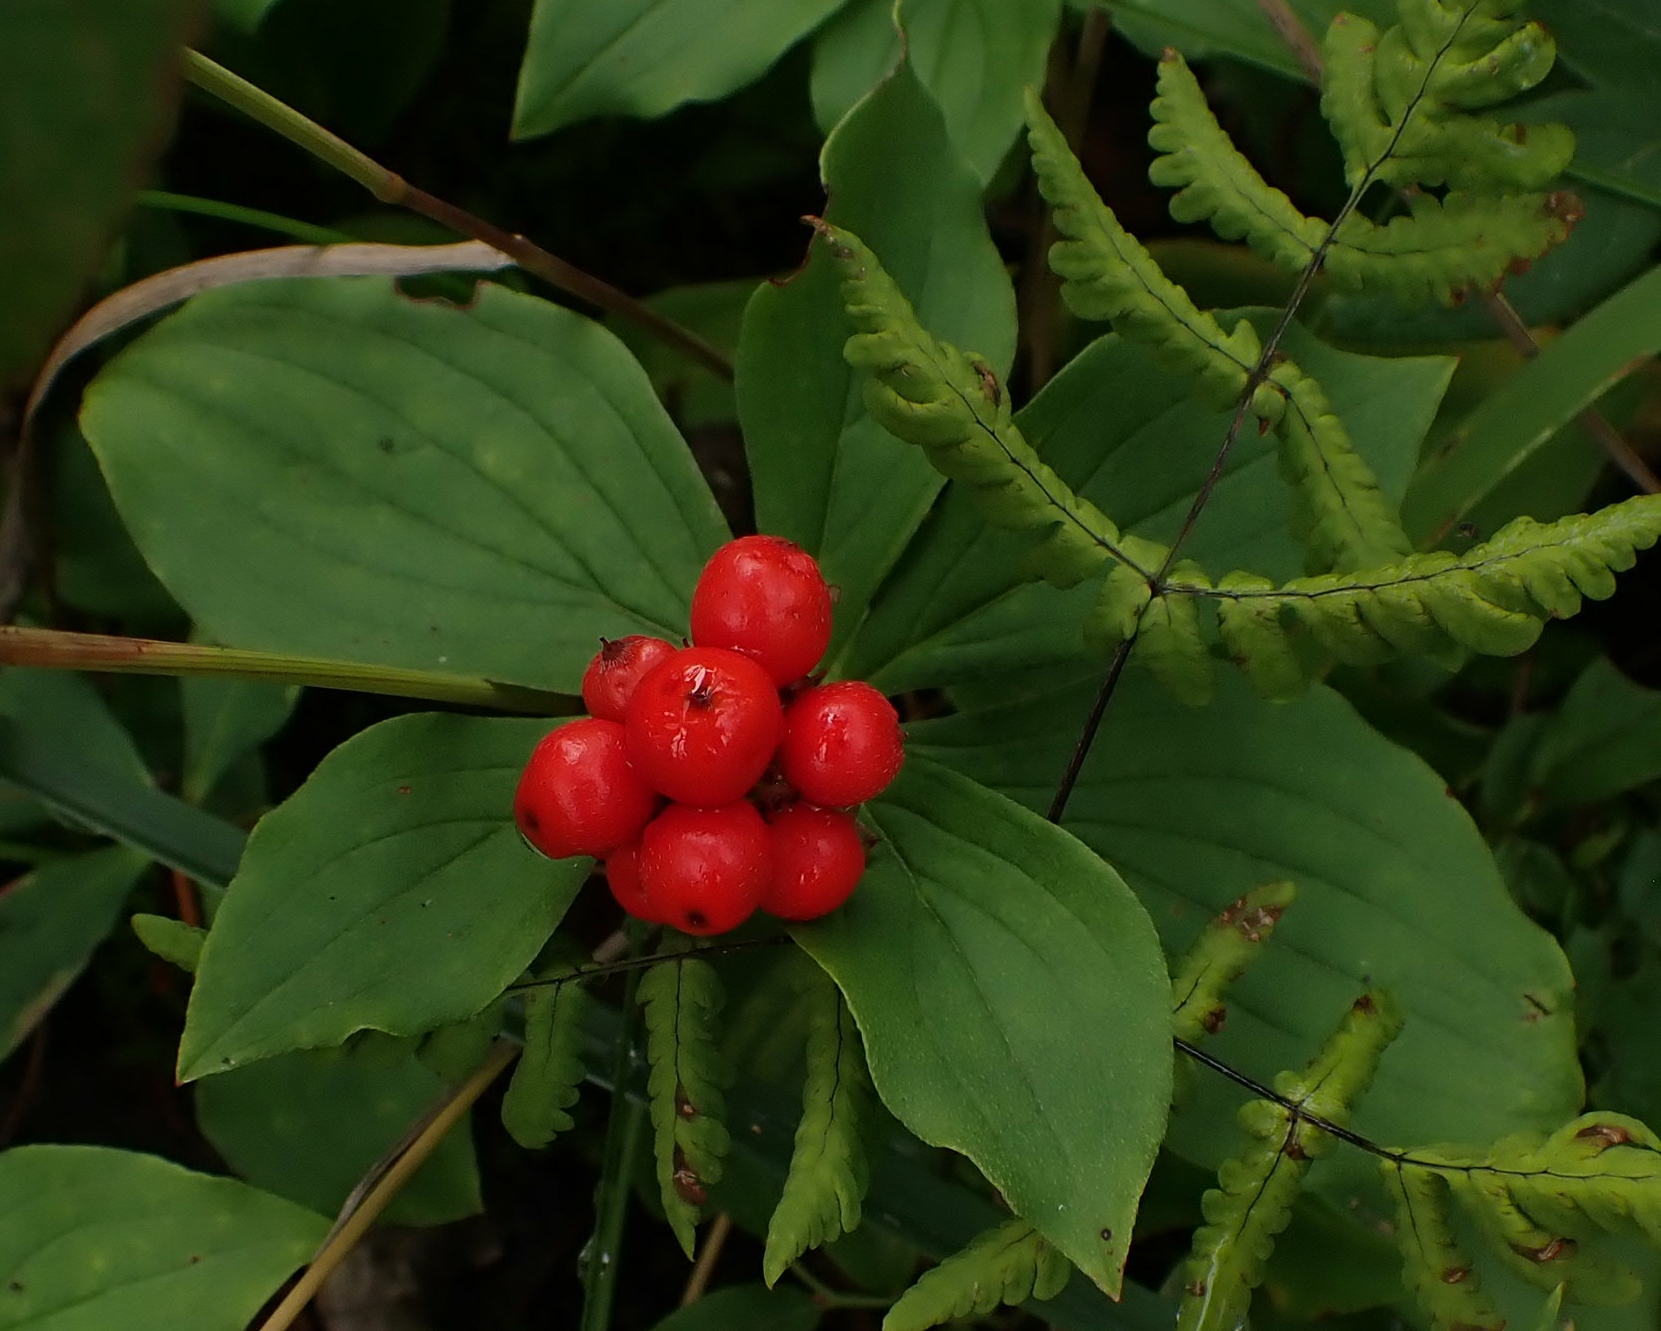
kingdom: Plantae
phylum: Tracheophyta
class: Magnoliopsida
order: Cornales
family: Cornaceae
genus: Cornus
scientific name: Cornus canadensis
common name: Creeping dogwood
